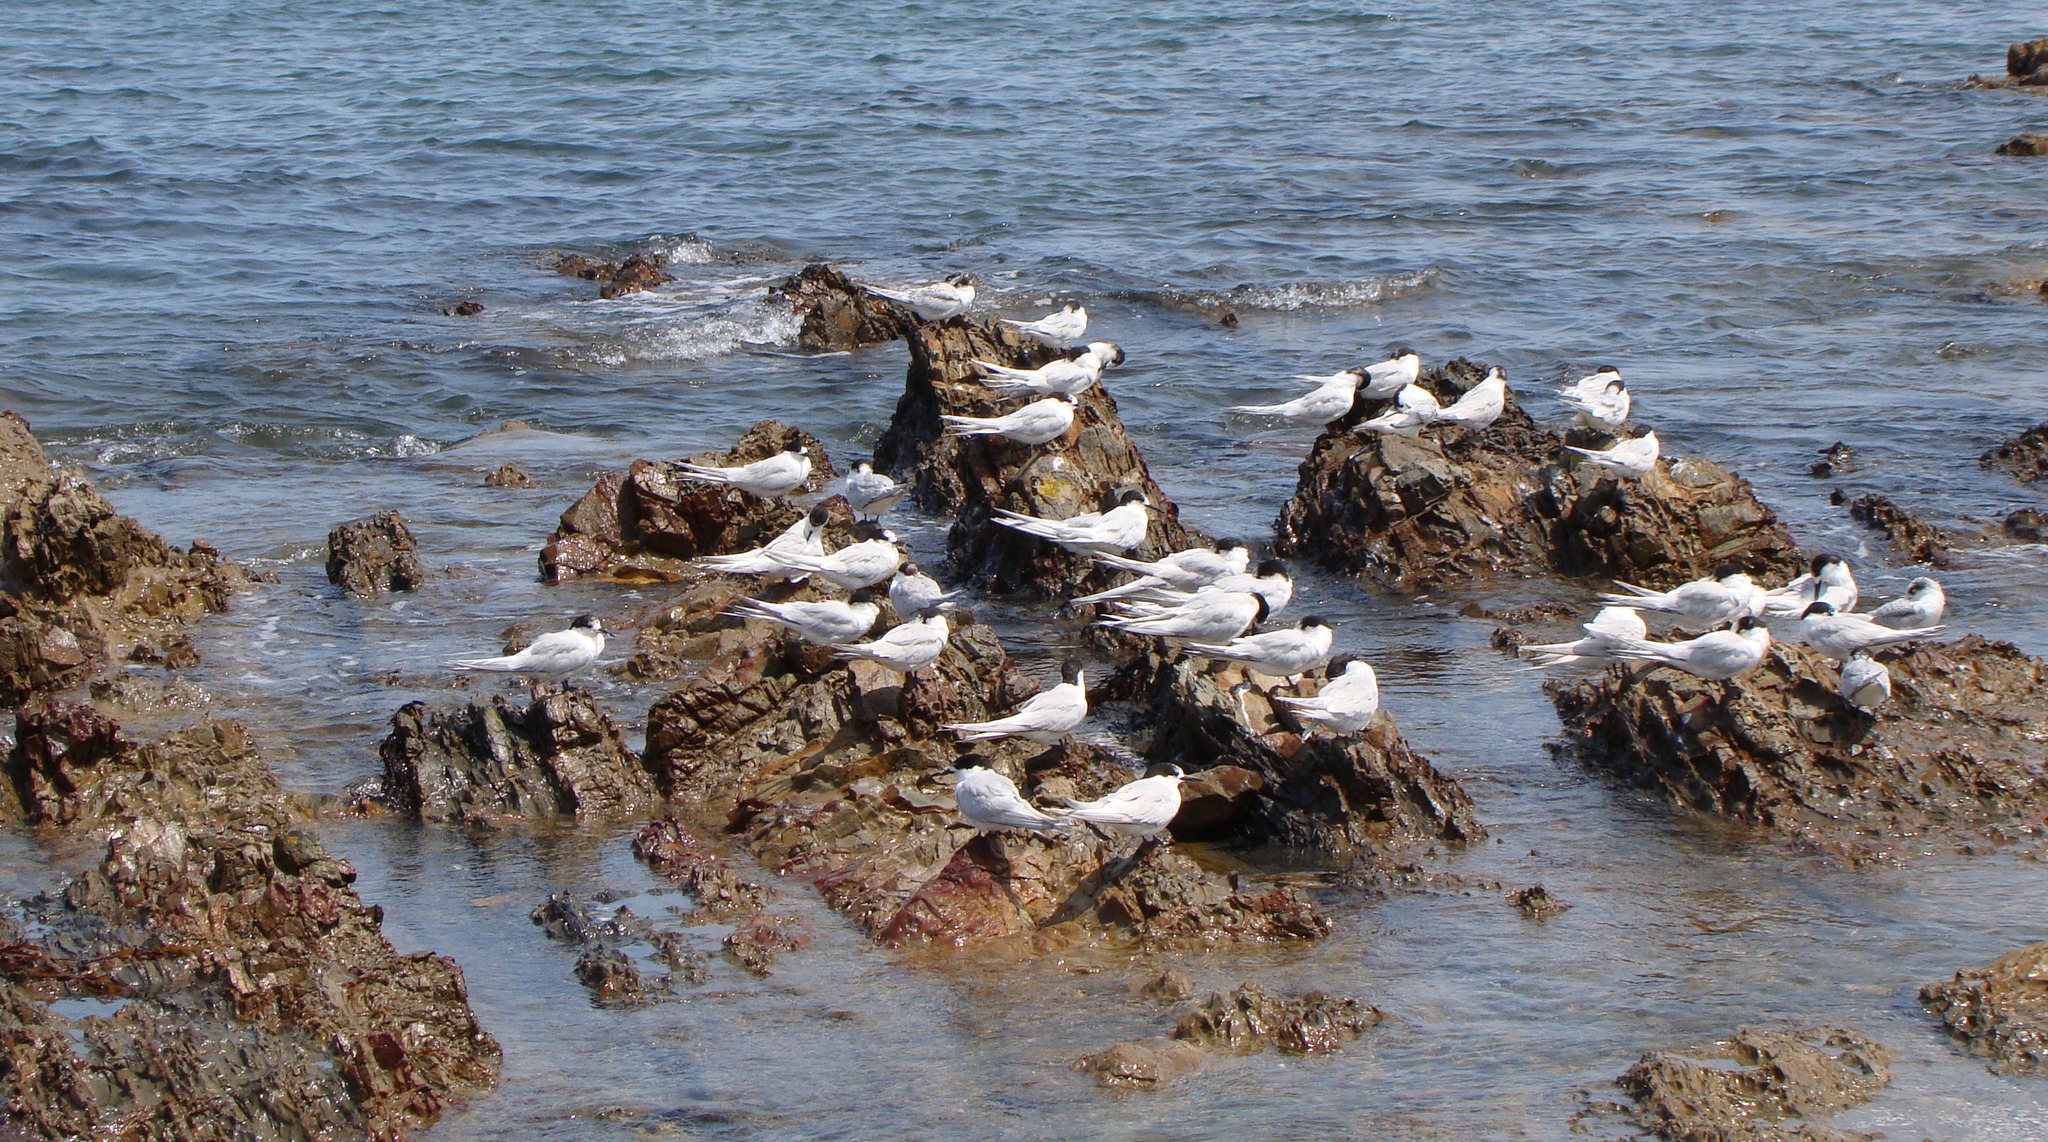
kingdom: Animalia
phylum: Chordata
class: Aves
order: Charadriiformes
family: Laridae
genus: Sterna
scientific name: Sterna striata
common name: White-fronted tern
